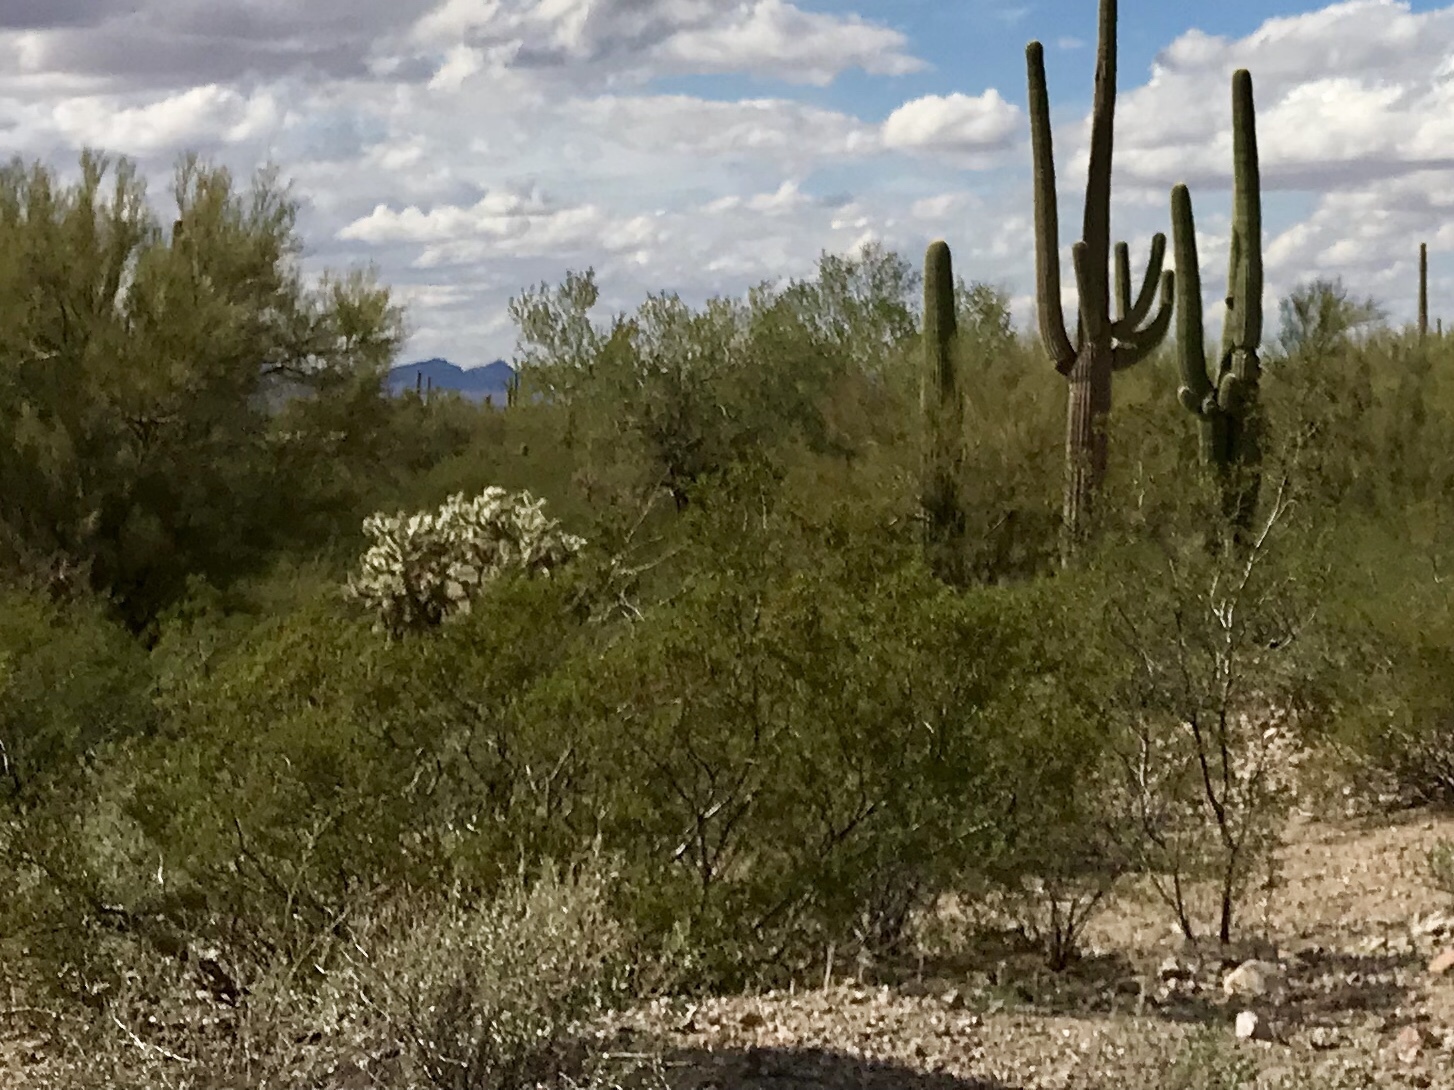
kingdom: Plantae
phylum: Tracheophyta
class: Magnoliopsida
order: Zygophyllales
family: Zygophyllaceae
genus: Larrea
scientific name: Larrea tridentata
